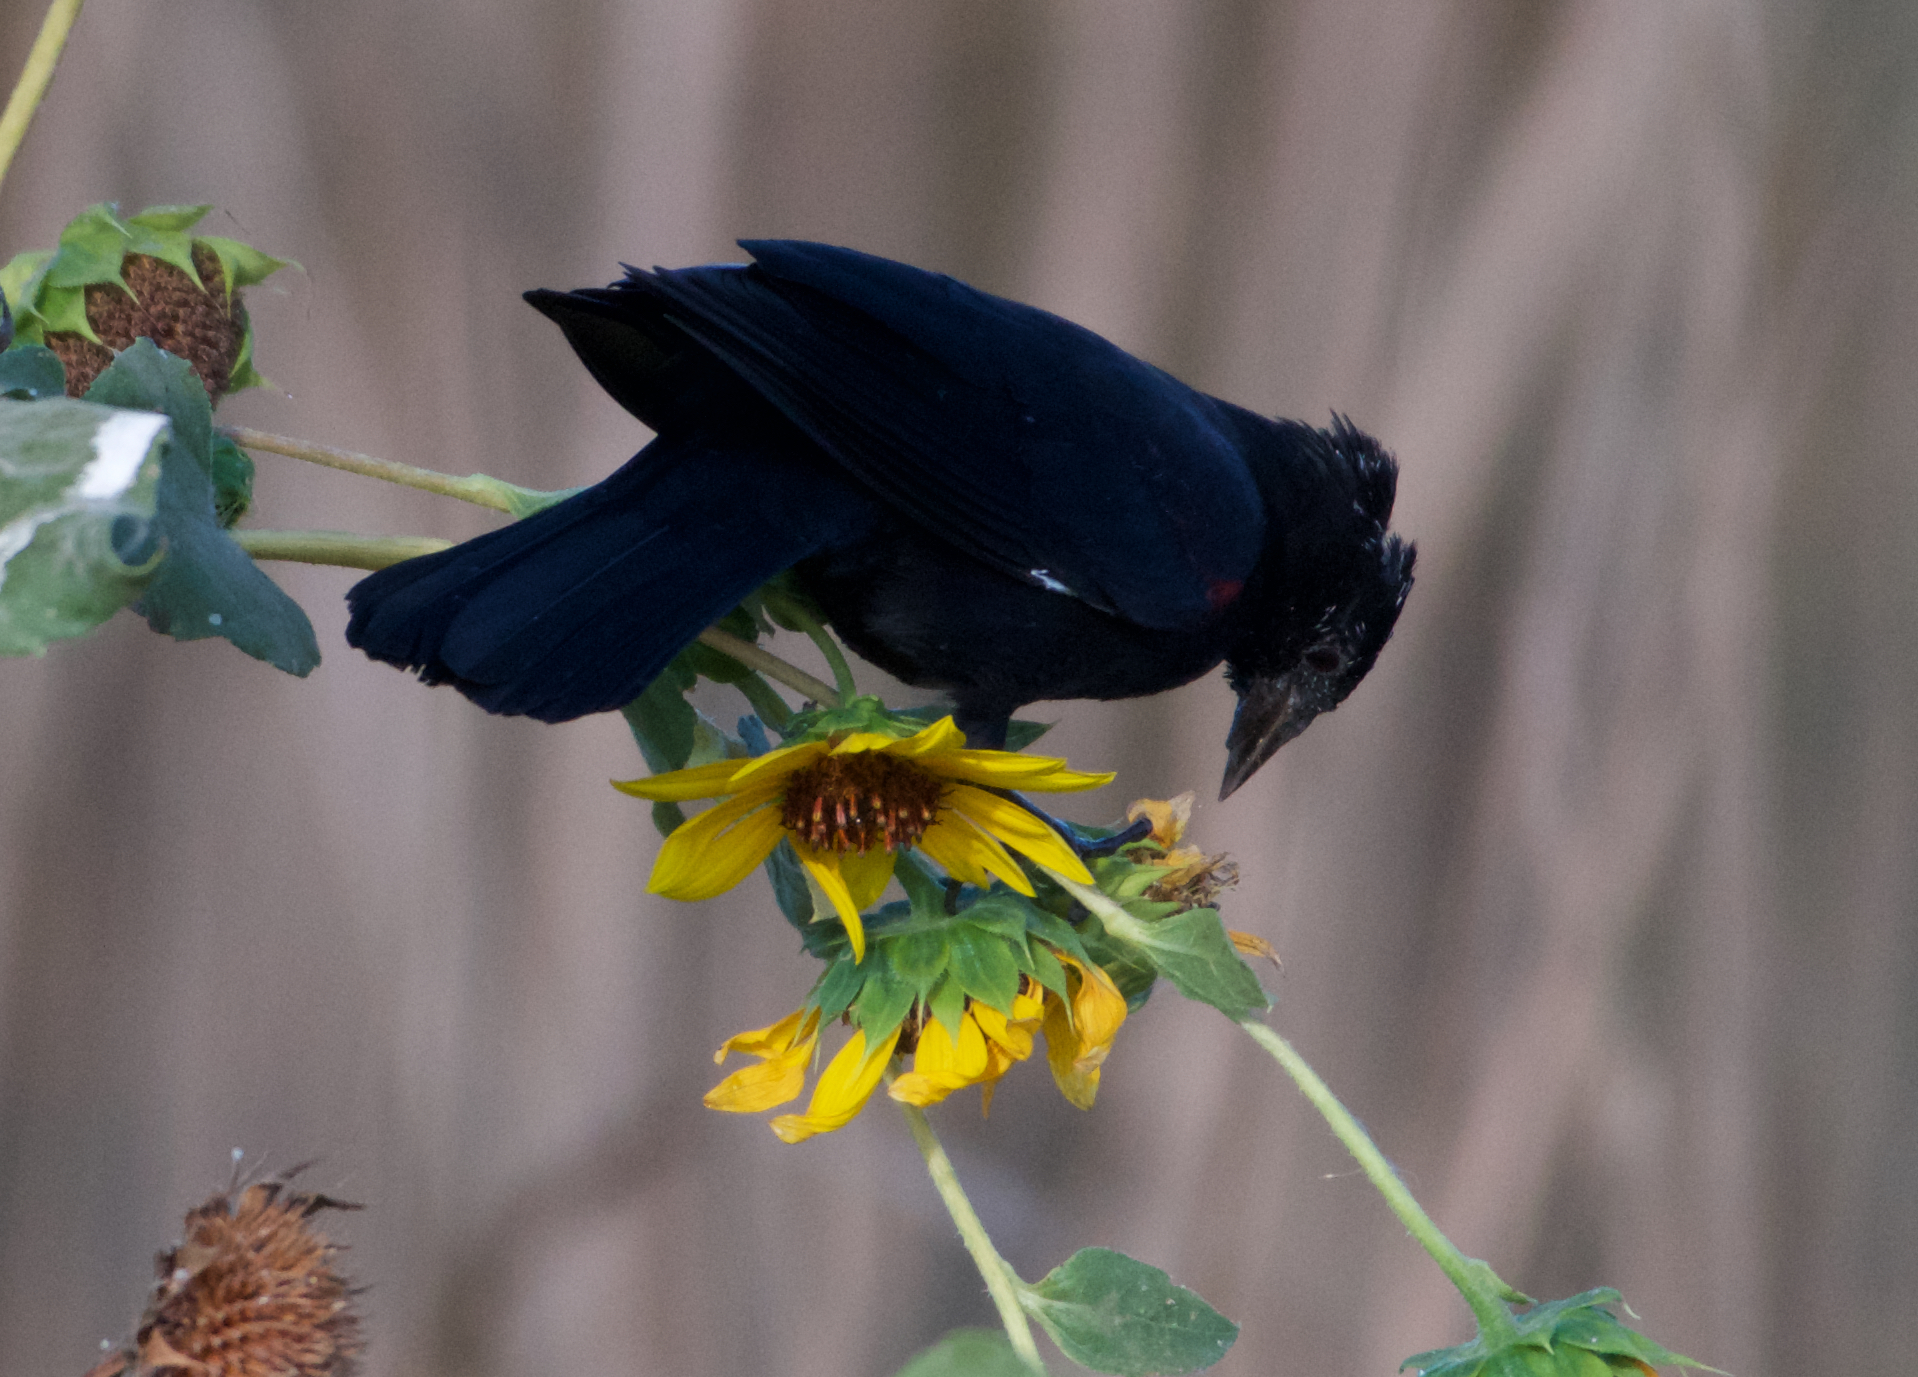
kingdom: Animalia
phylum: Chordata
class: Aves
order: Passeriformes
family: Icteridae
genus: Agelaius
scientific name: Agelaius phoeniceus
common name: Red-winged blackbird
